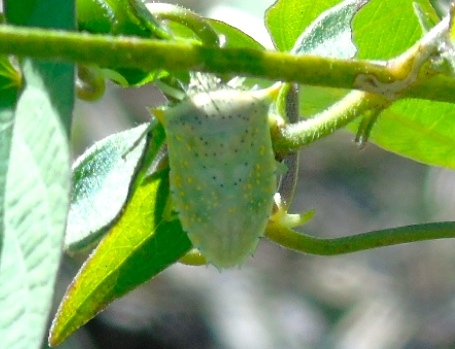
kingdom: Animalia
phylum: Arthropoda
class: Insecta
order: Hemiptera
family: Pentatomidae
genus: Arvelius
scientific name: Arvelius
